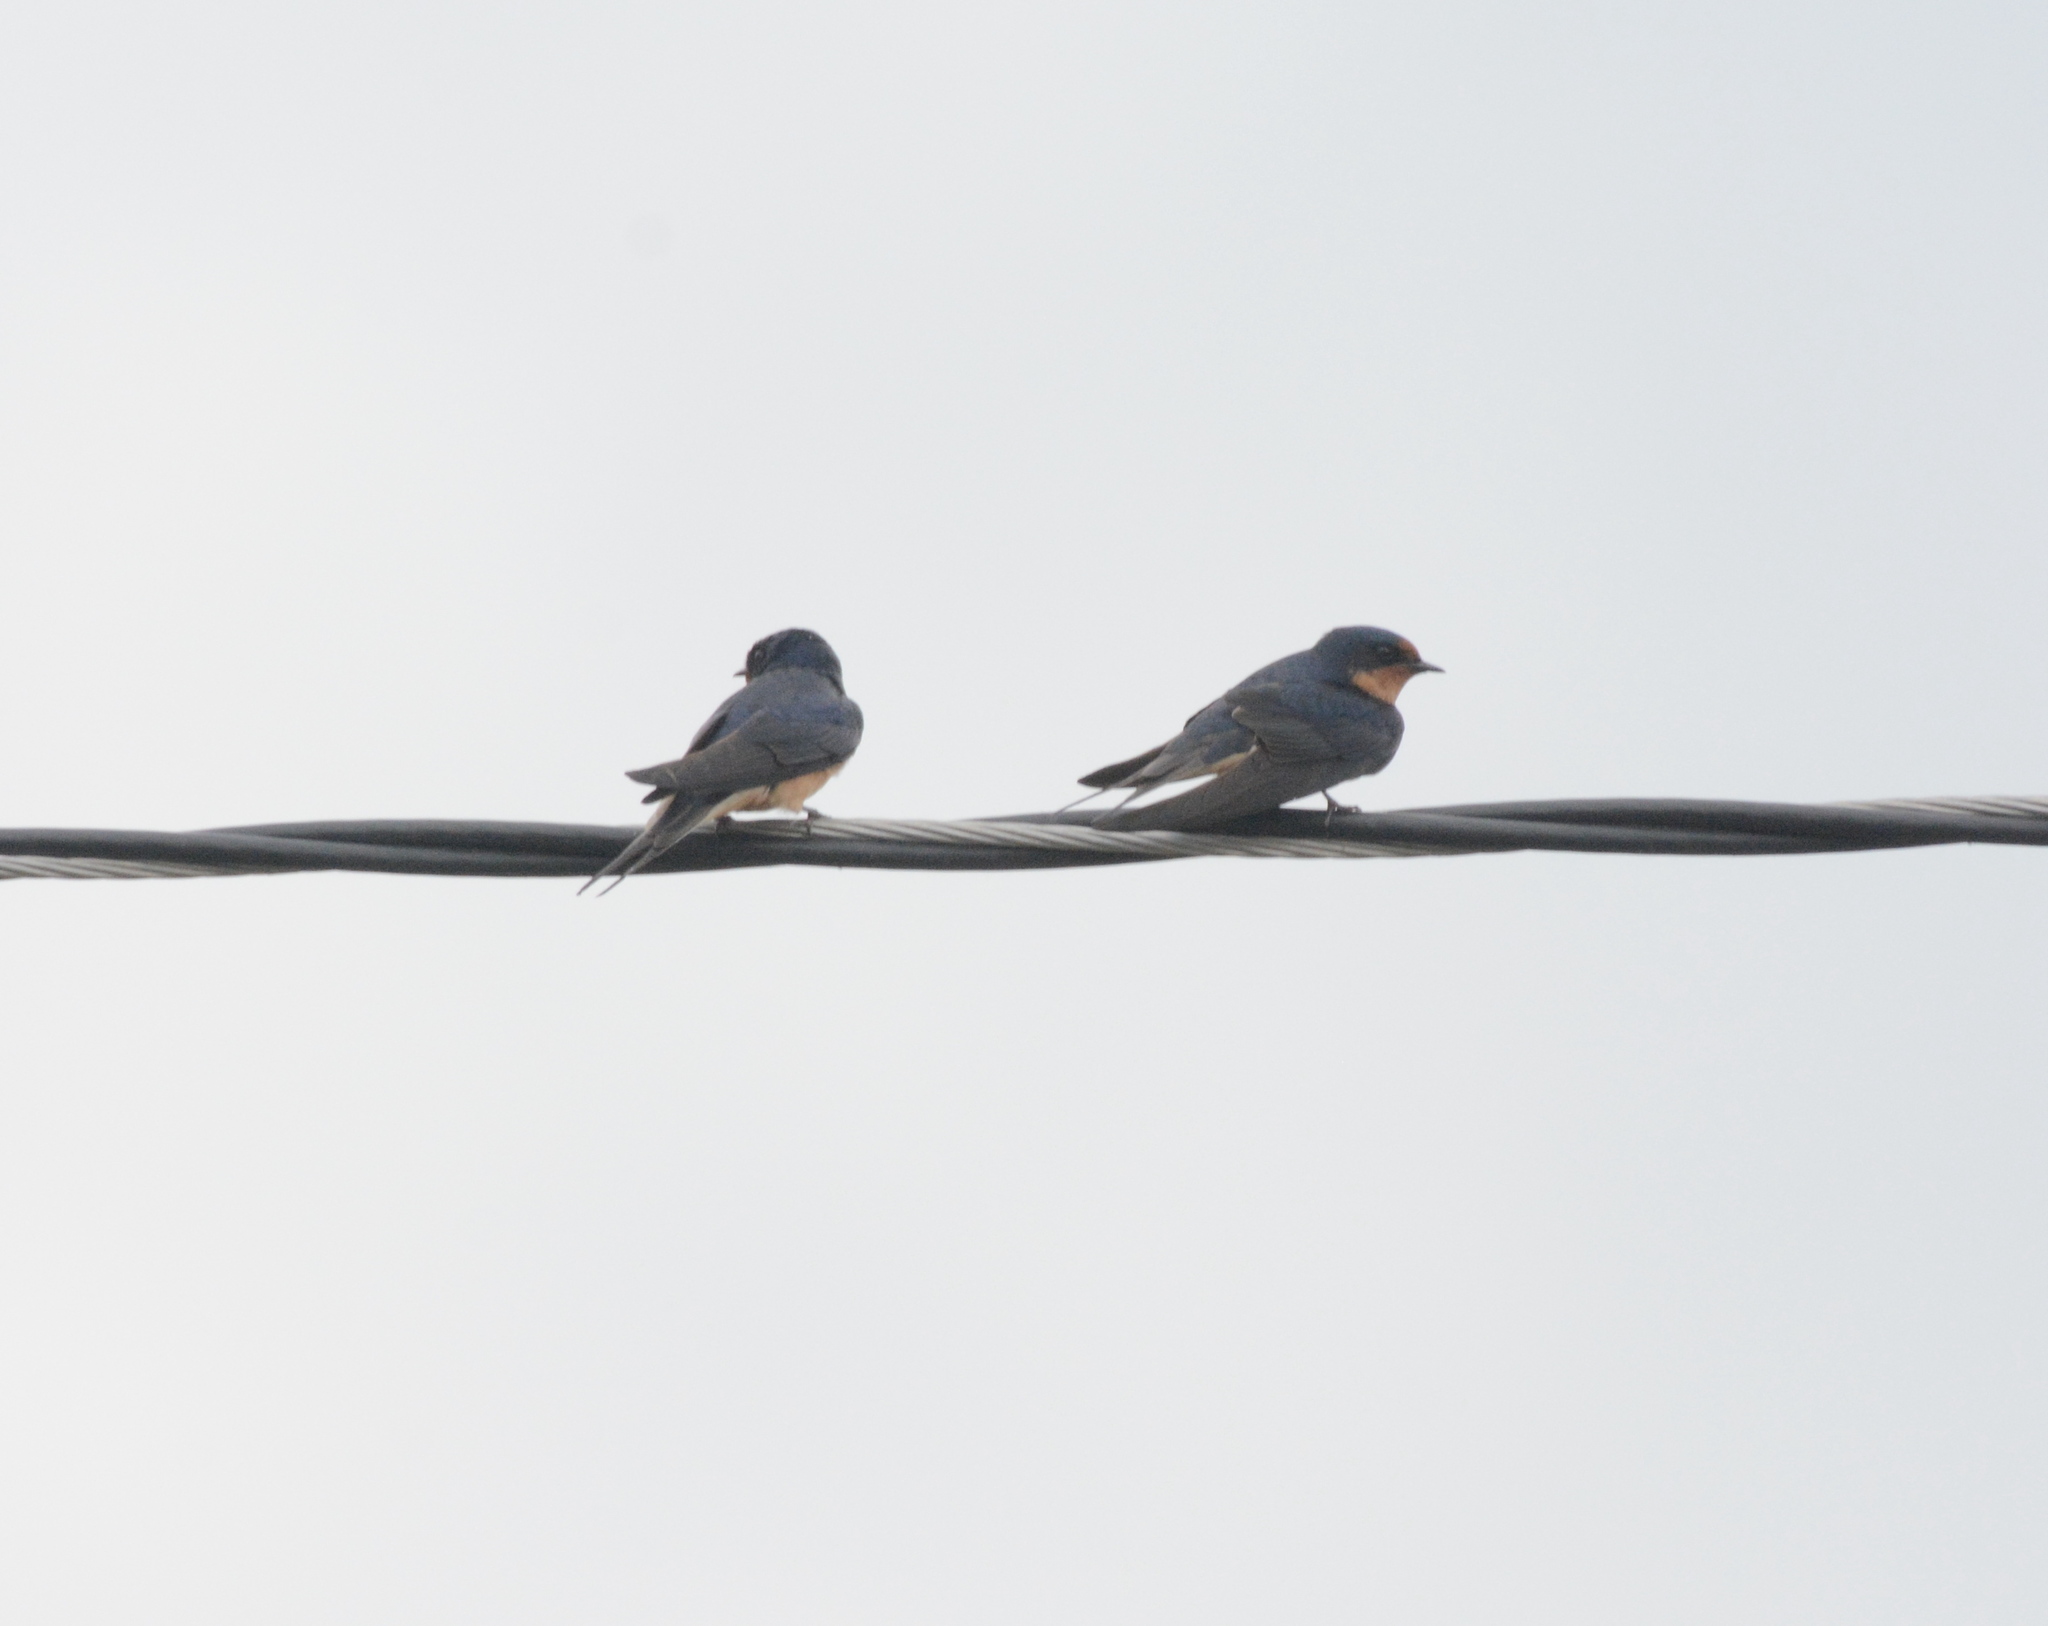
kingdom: Animalia
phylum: Chordata
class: Aves
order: Passeriformes
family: Hirundinidae
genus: Hirundo
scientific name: Hirundo rustica
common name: Barn swallow
